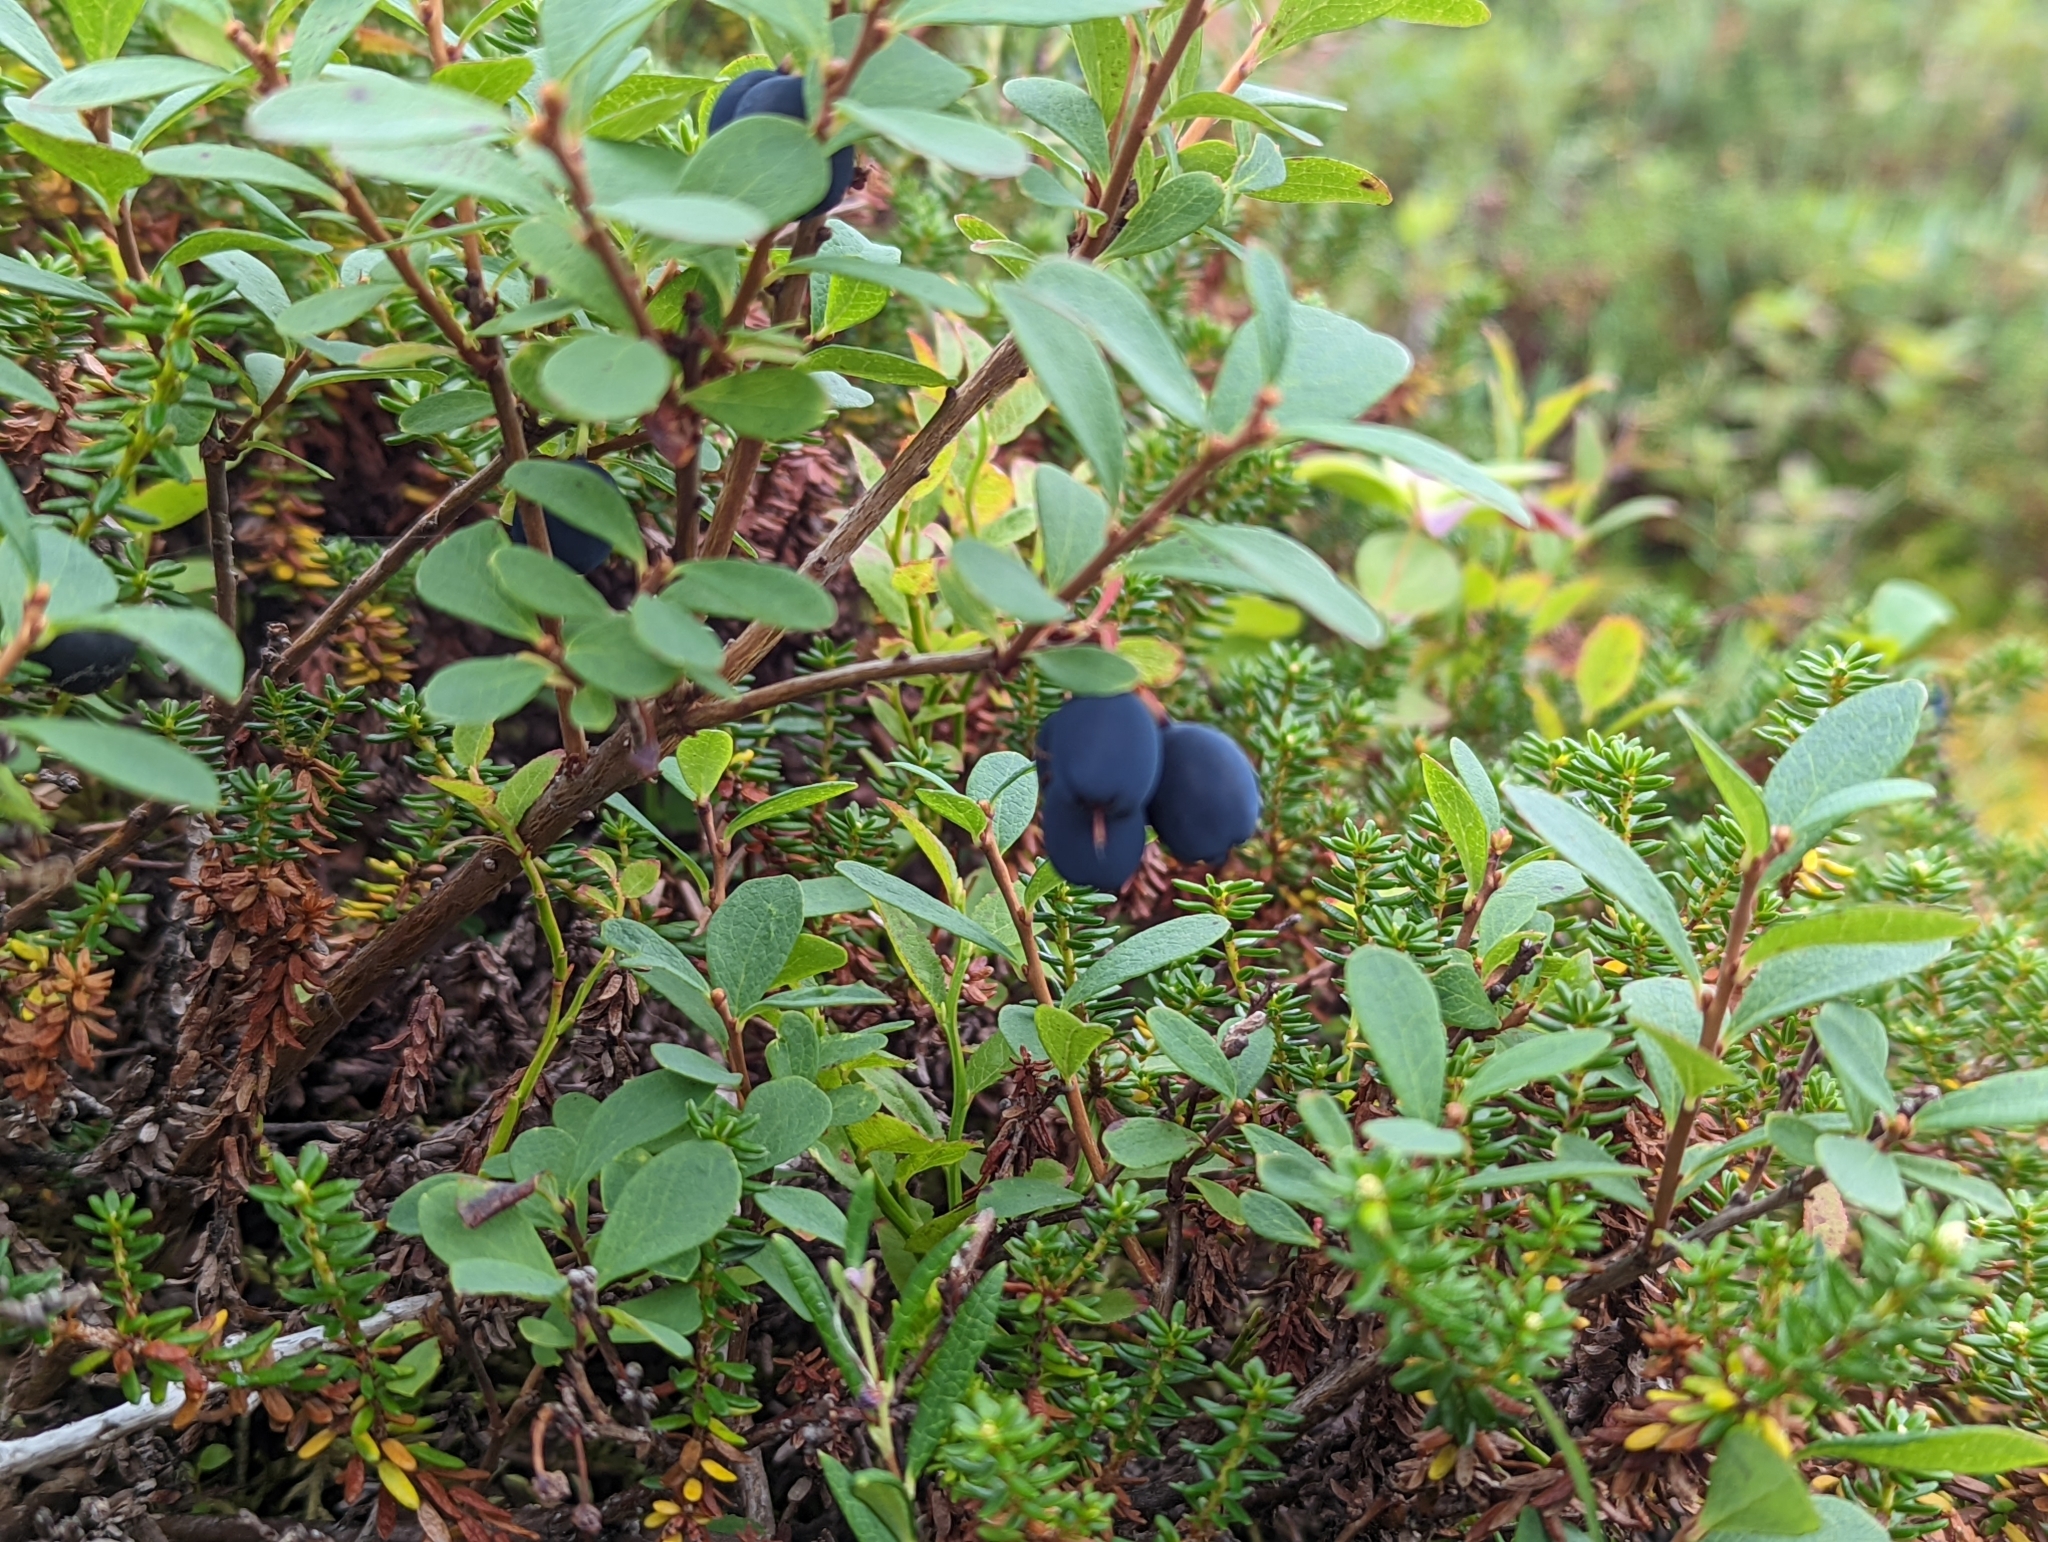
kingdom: Plantae
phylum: Tracheophyta
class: Magnoliopsida
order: Ericales
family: Ericaceae
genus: Vaccinium
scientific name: Vaccinium uliginosum
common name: Bog bilberry
